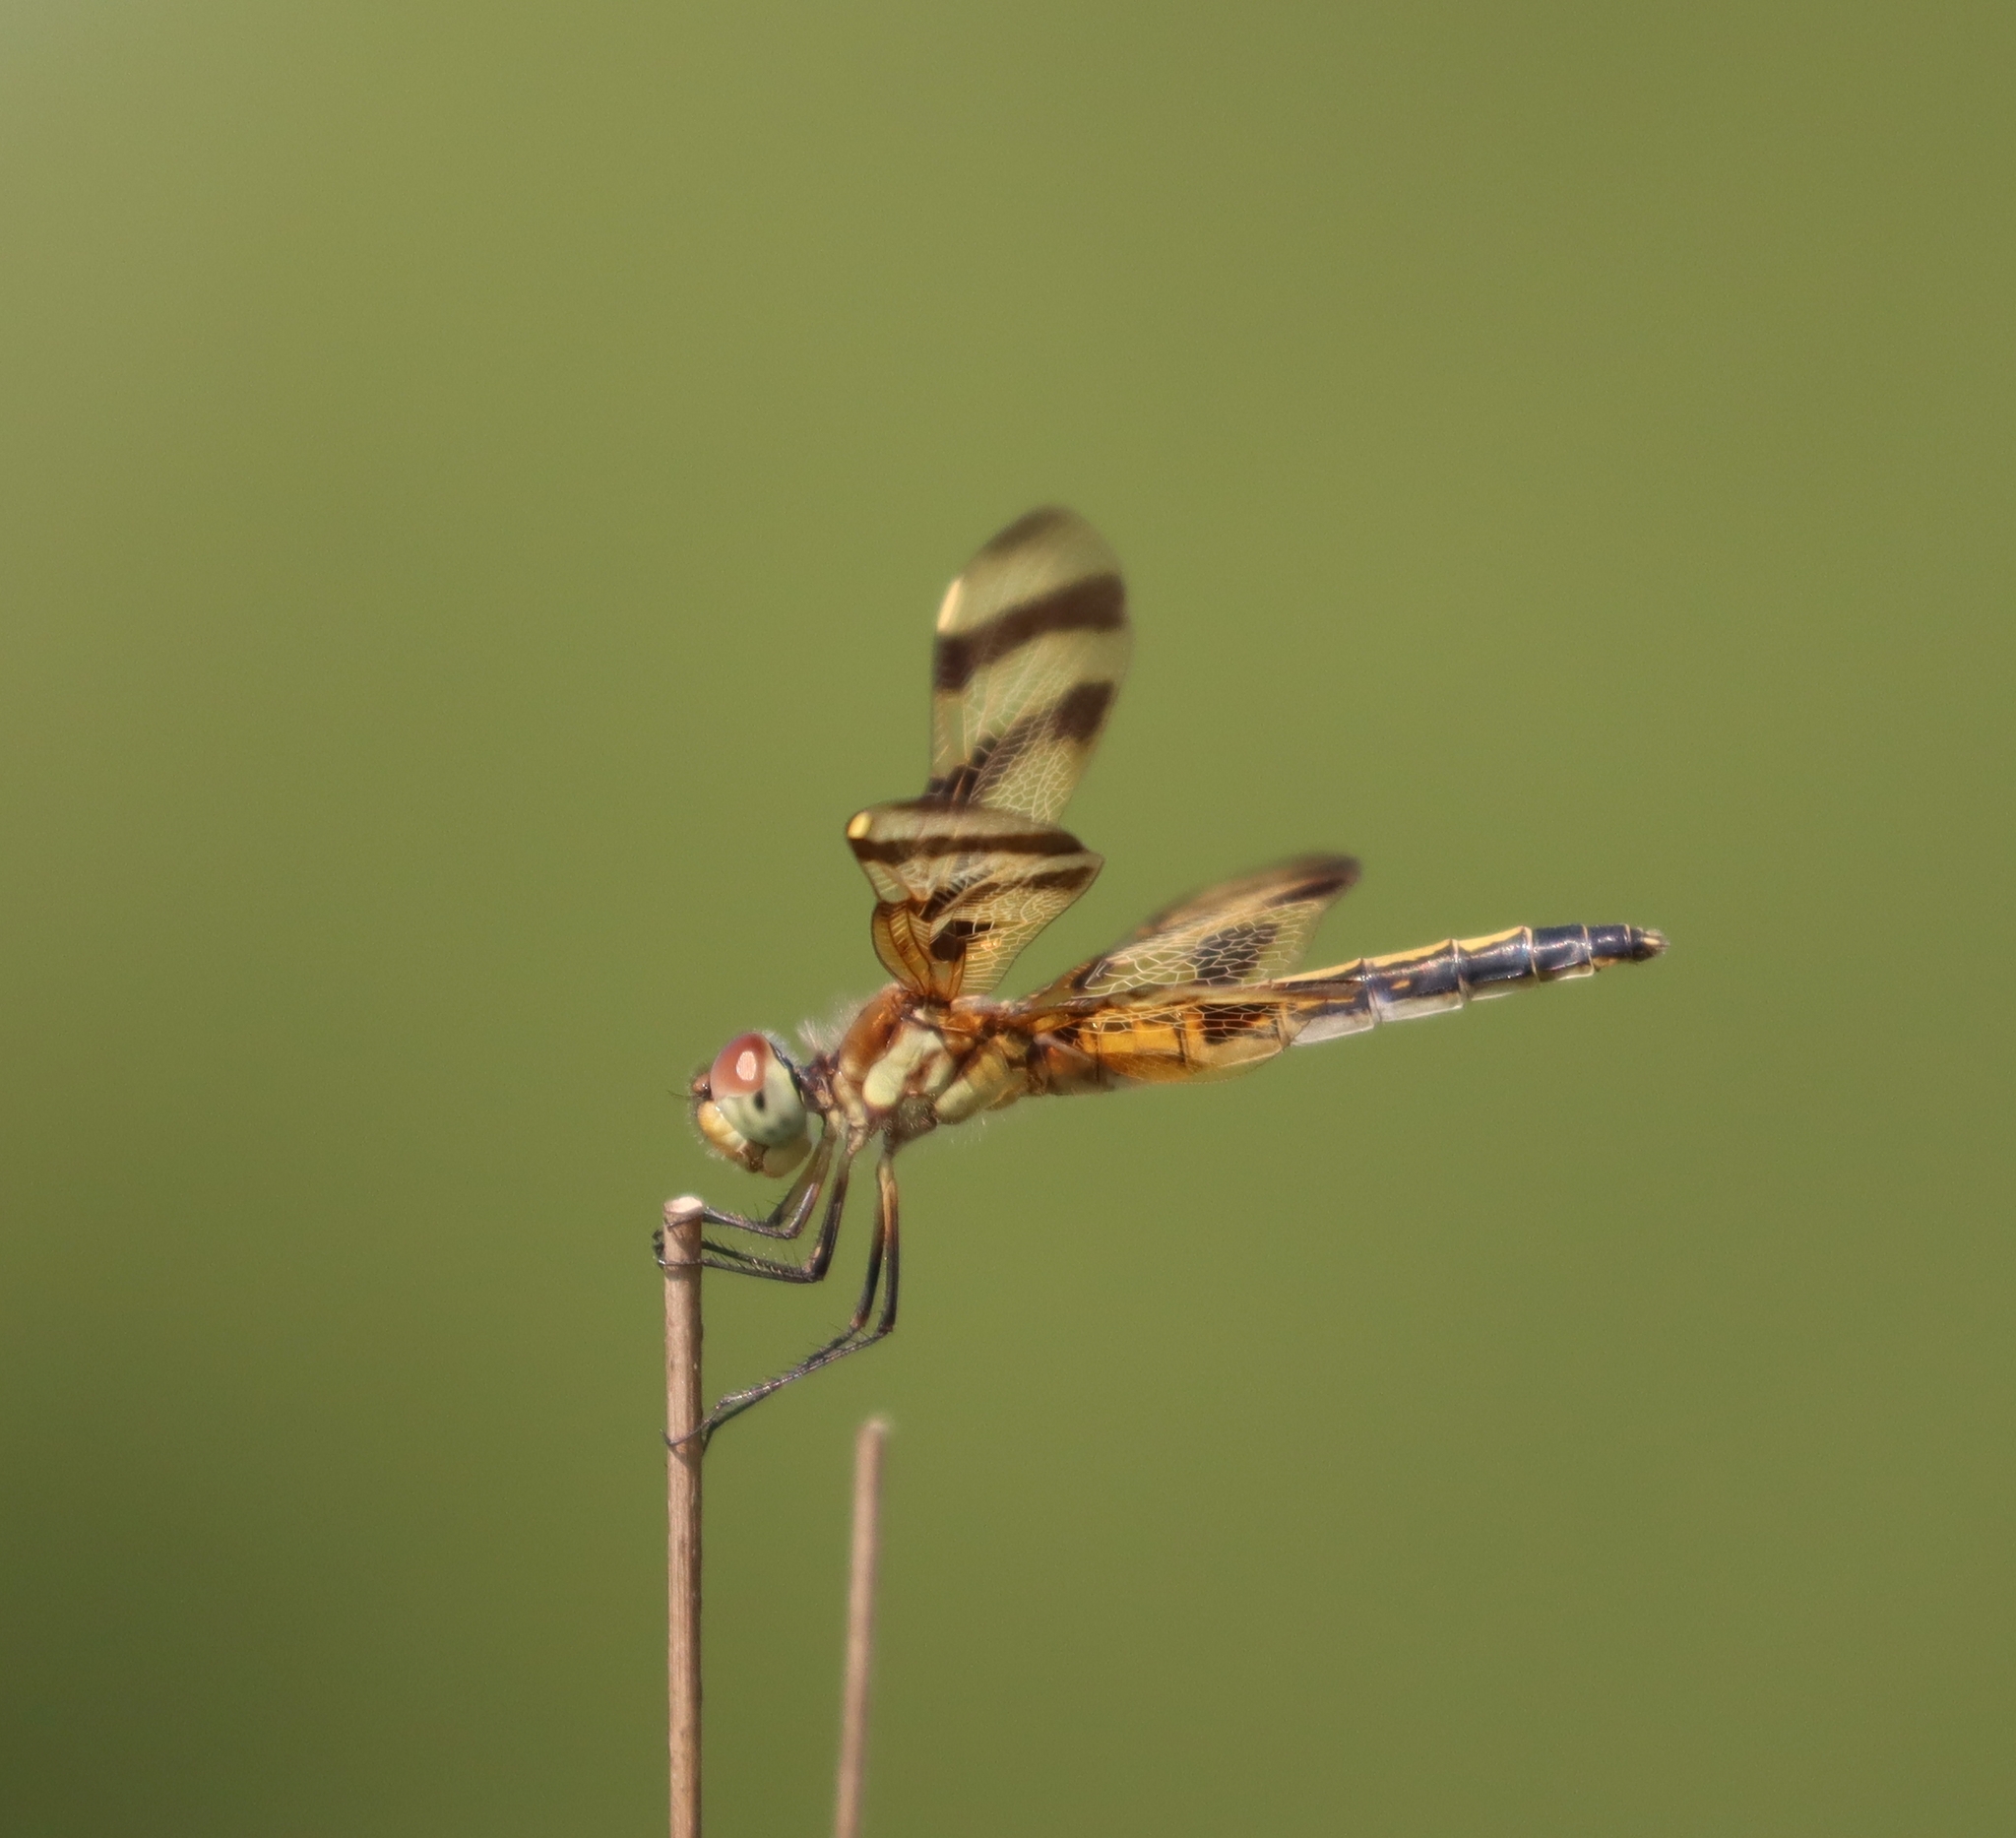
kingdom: Animalia
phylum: Arthropoda
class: Insecta
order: Odonata
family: Libellulidae
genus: Celithemis
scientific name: Celithemis eponina
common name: Halloween pennant
